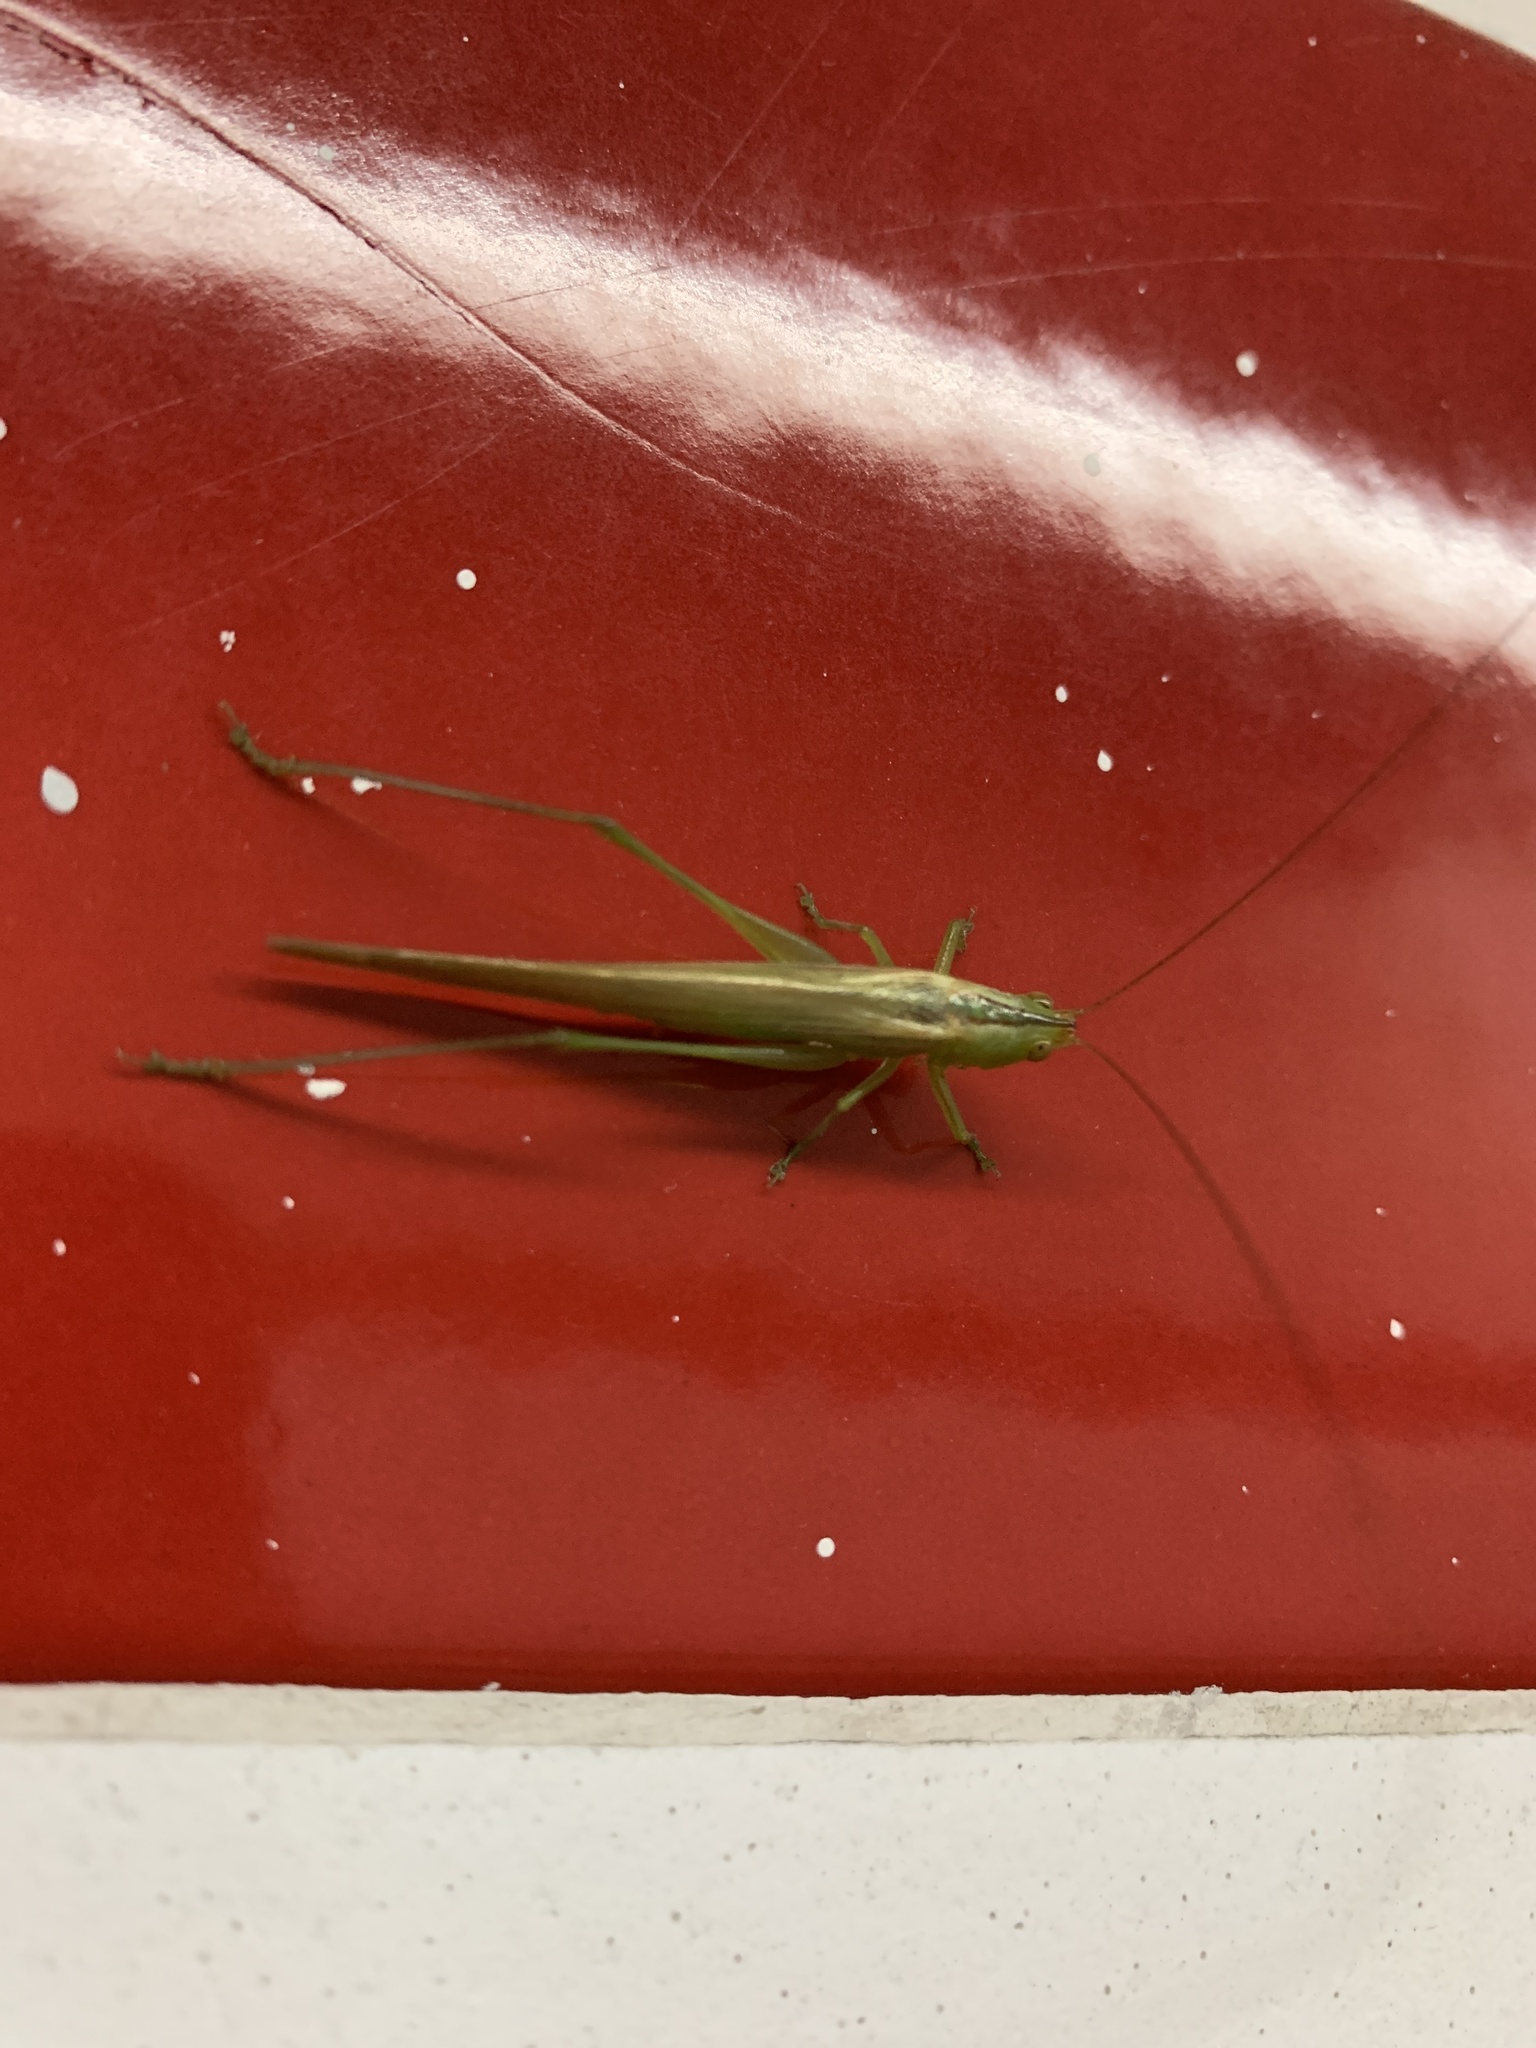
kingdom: Animalia
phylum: Arthropoda
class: Insecta
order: Orthoptera
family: Tettigoniidae
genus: Conocephalus
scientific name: Conocephalus longipes
